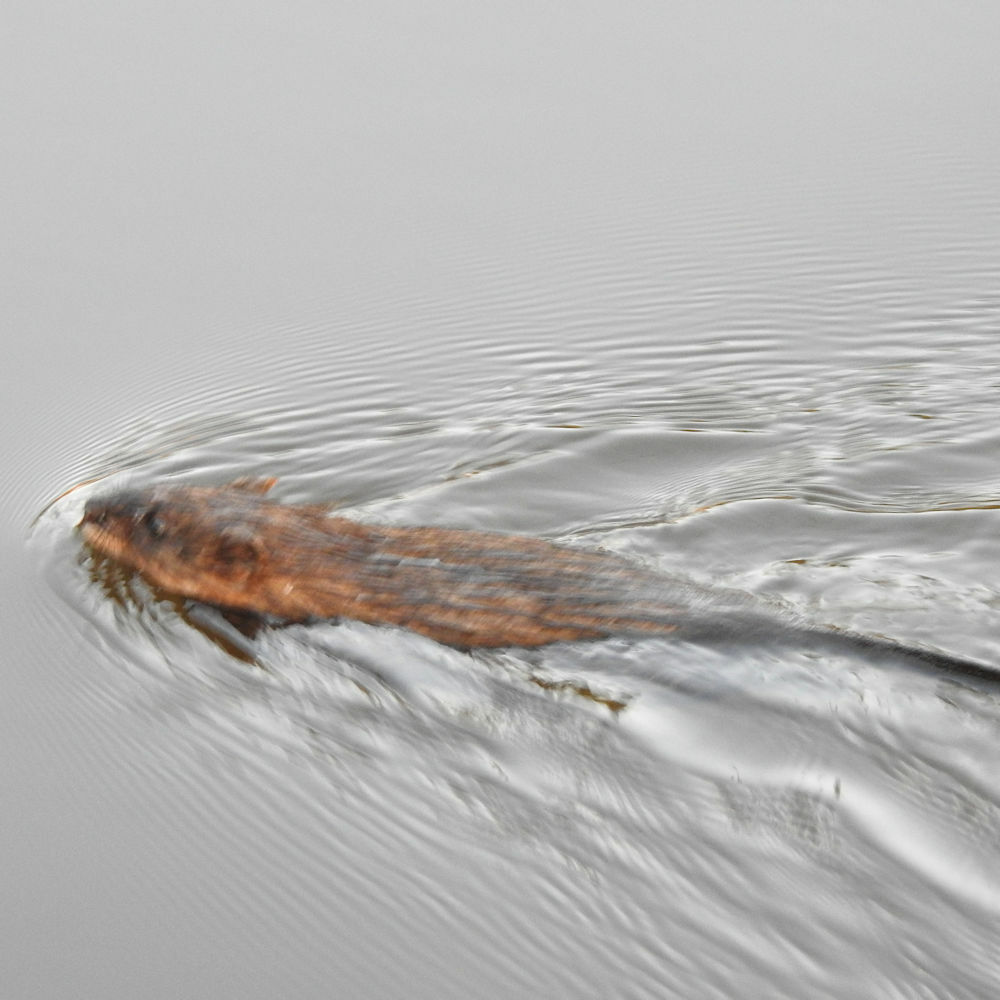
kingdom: Animalia
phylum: Chordata
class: Mammalia
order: Rodentia
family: Cricetidae
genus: Ondatra
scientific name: Ondatra zibethicus
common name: Muskrat
